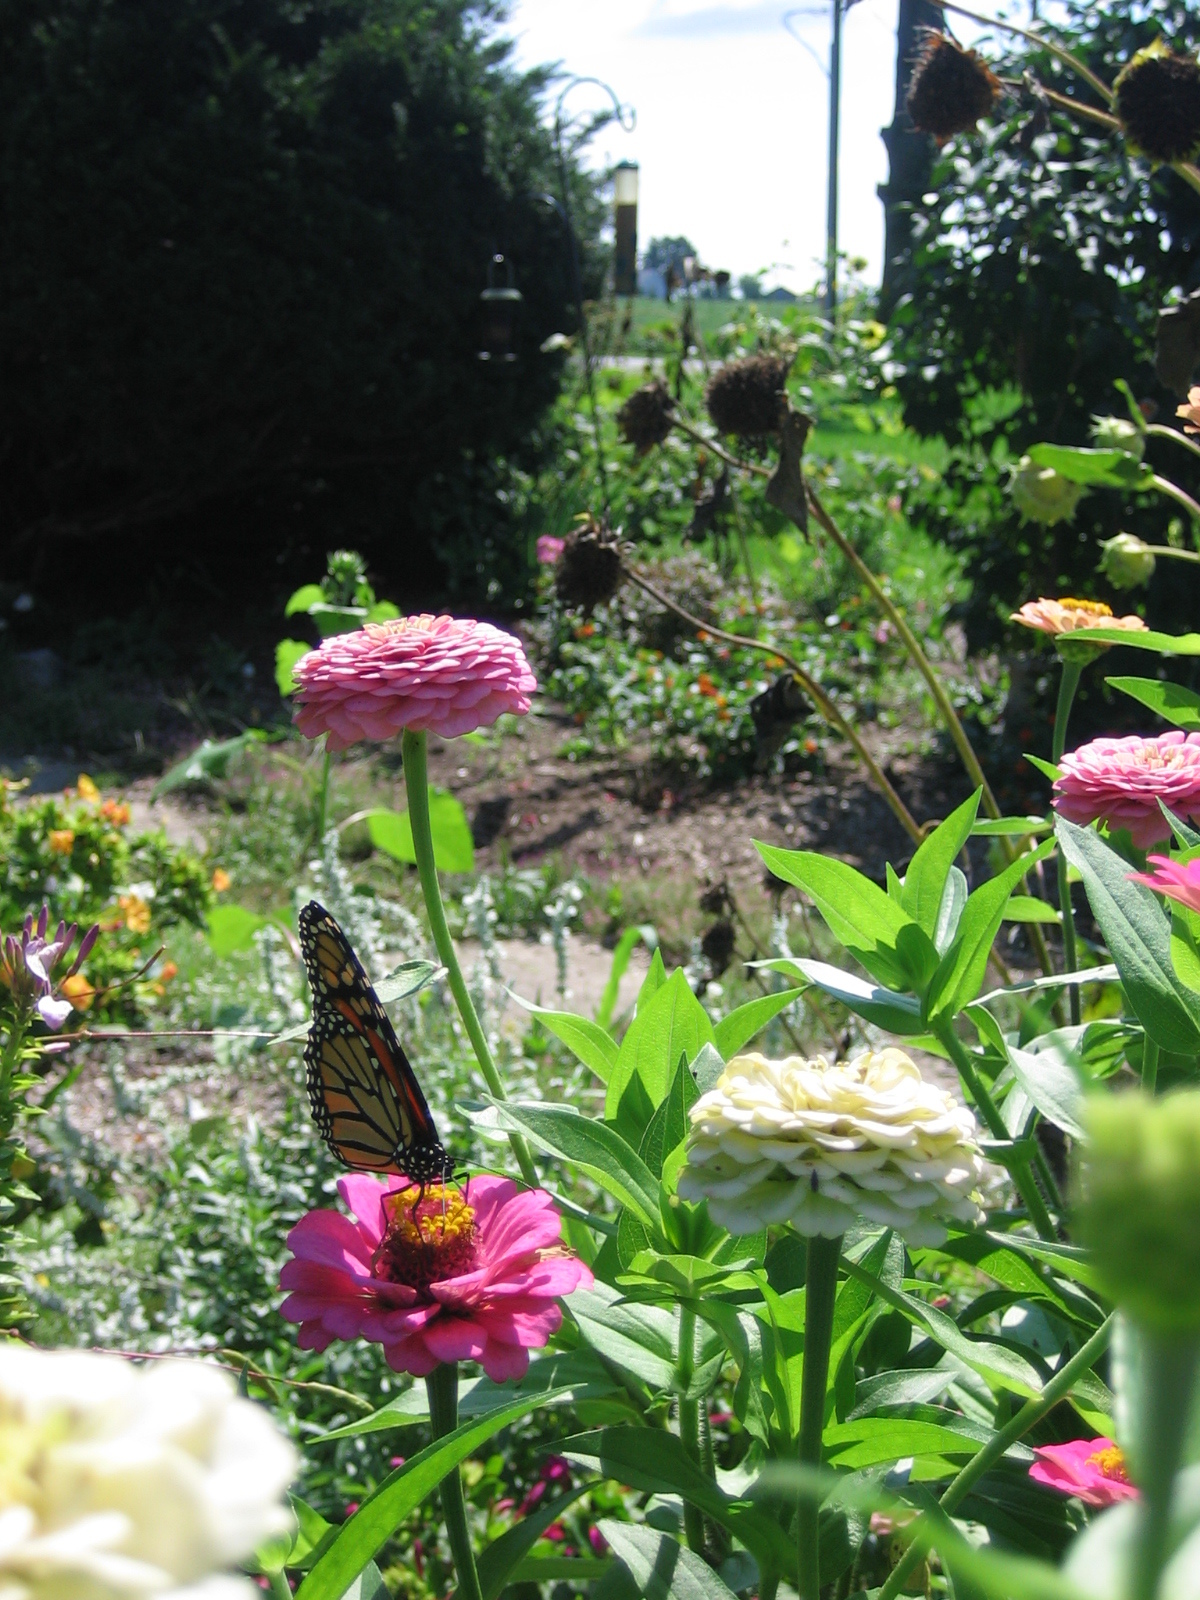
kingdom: Animalia
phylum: Arthropoda
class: Insecta
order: Lepidoptera
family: Nymphalidae
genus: Danaus
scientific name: Danaus plexippus
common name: Monarch
